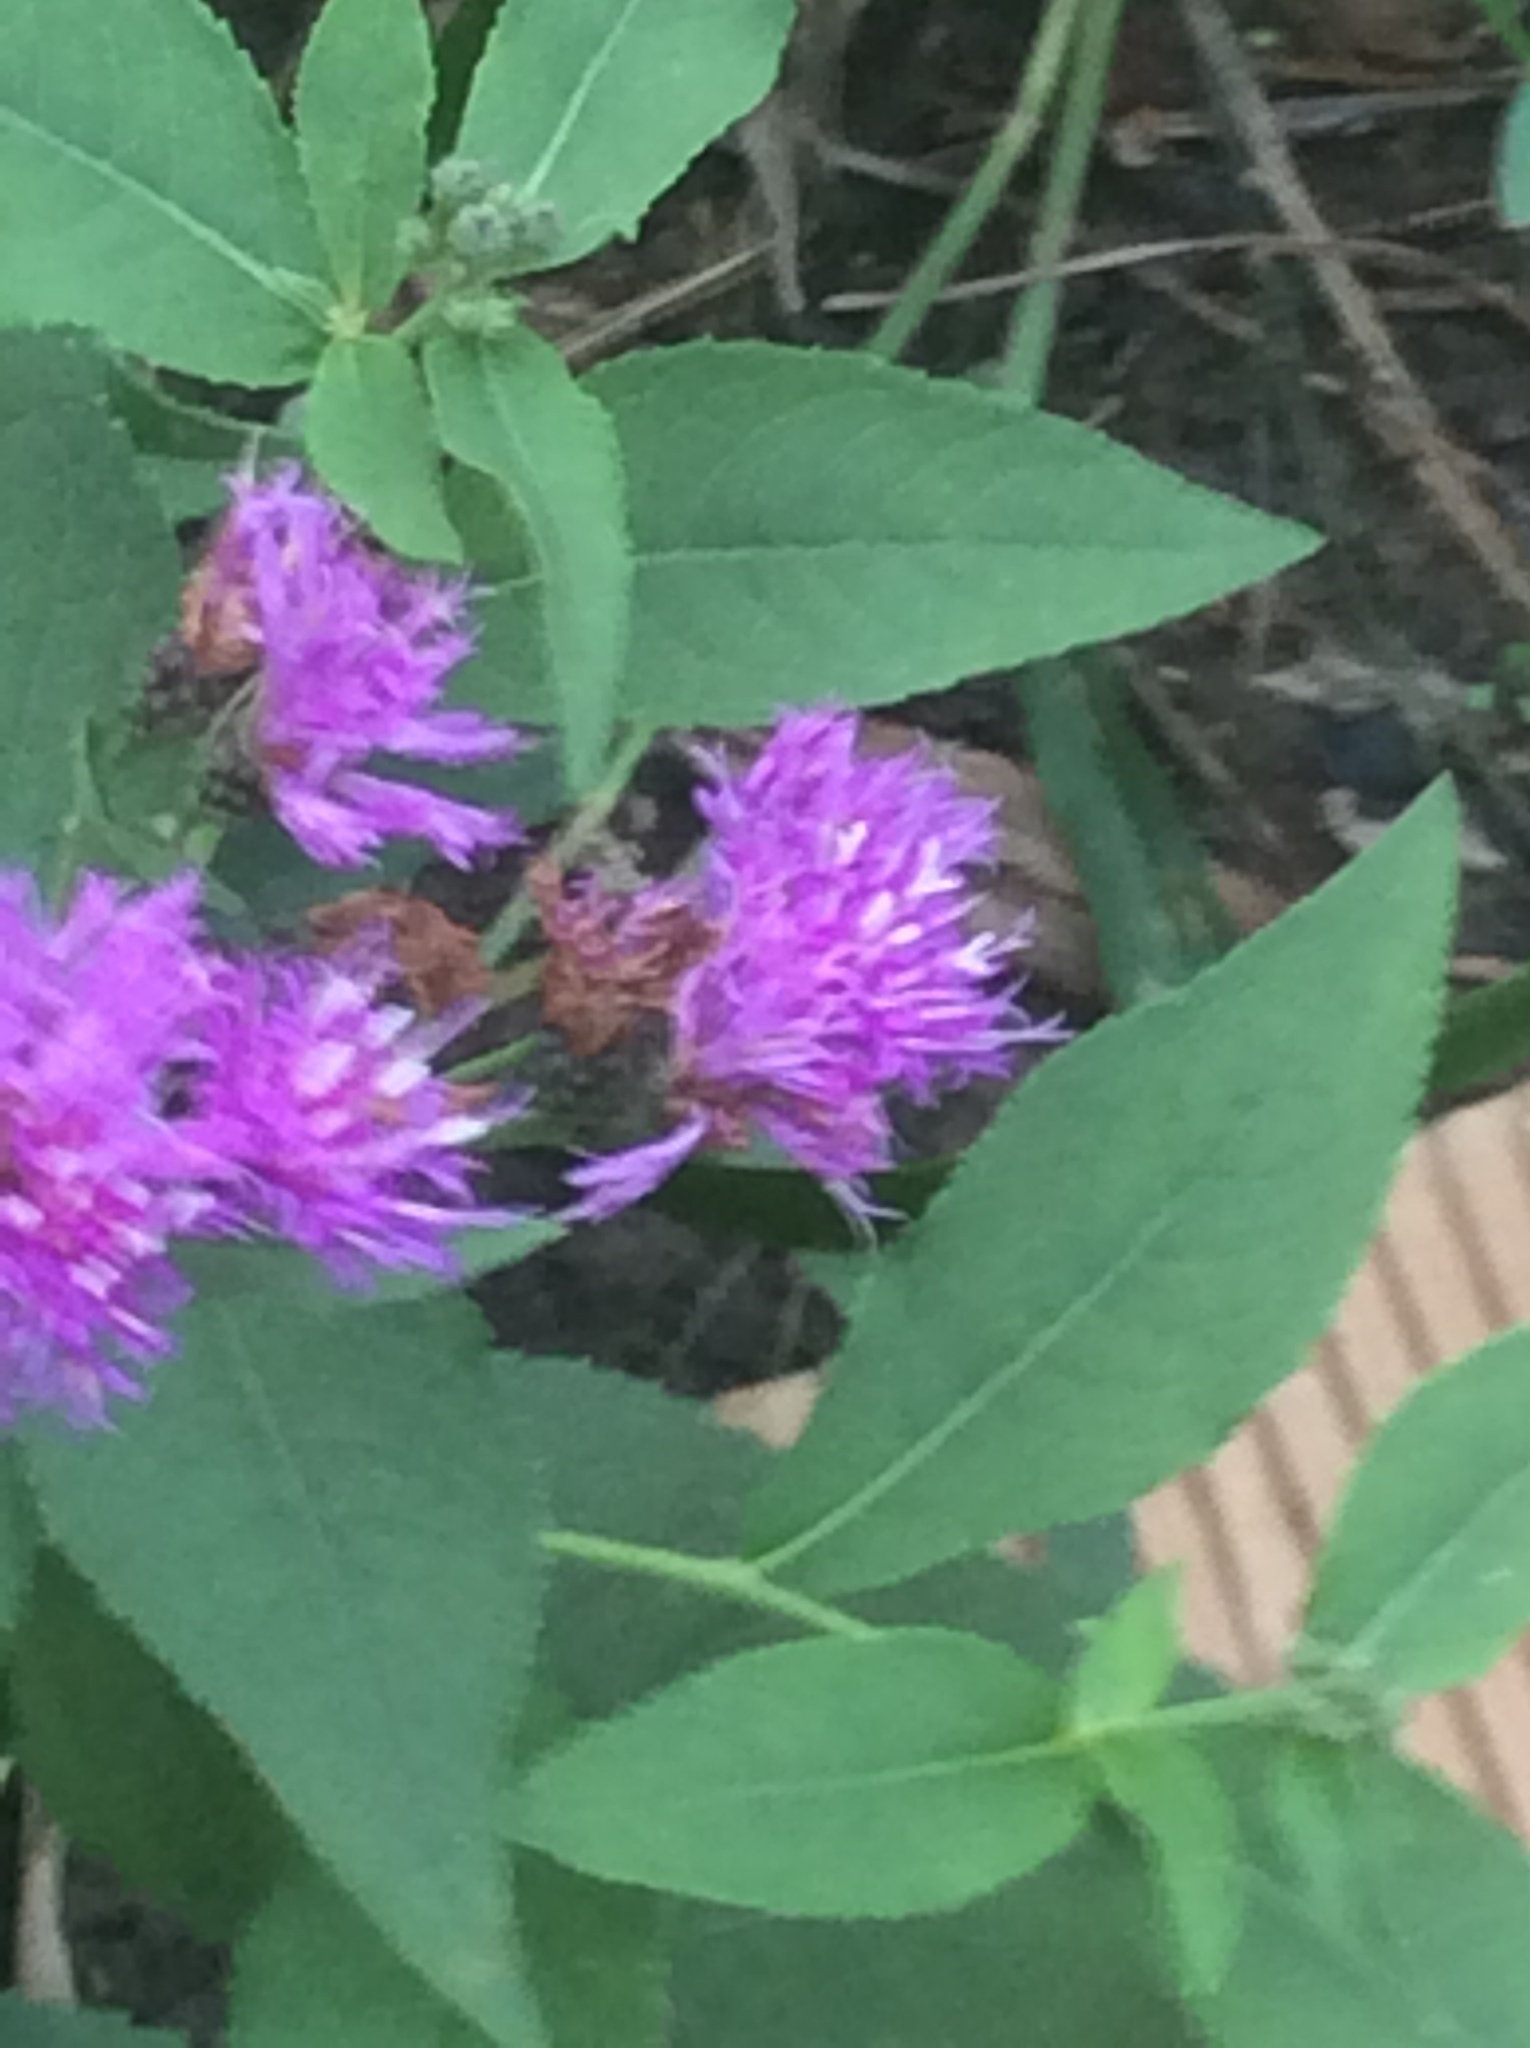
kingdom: Plantae
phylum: Tracheophyta
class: Magnoliopsida
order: Asterales
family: Asteraceae
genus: Vernonia
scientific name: Vernonia baldwinii
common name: Western ironweed
